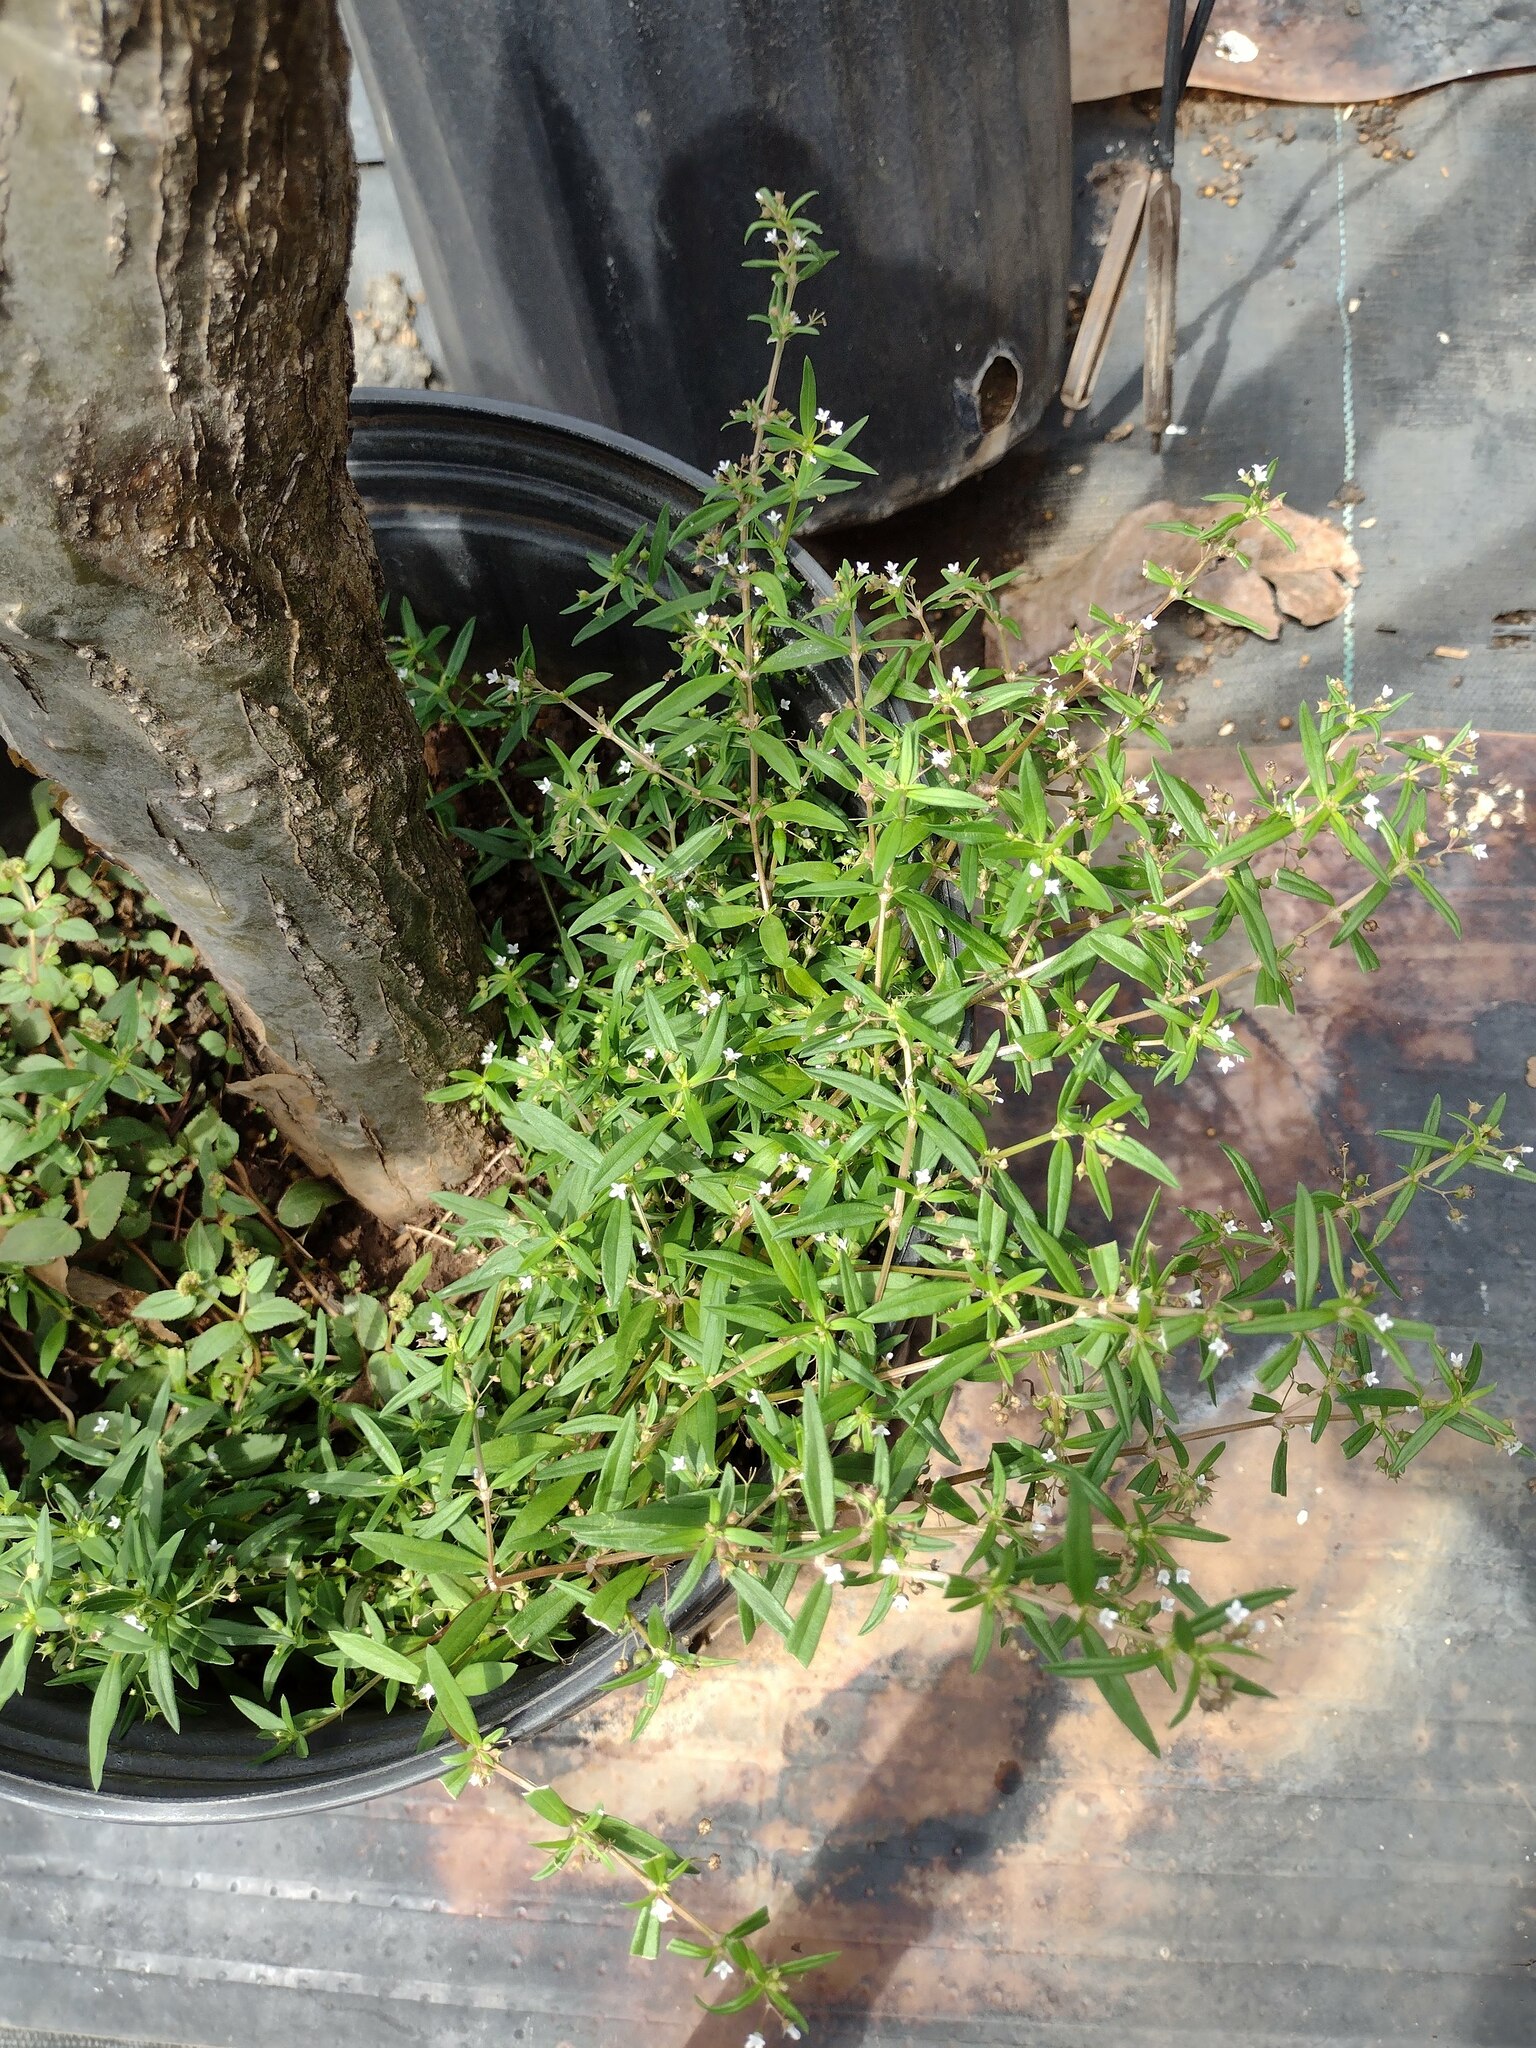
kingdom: Plantae
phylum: Tracheophyta
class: Magnoliopsida
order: Gentianales
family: Rubiaceae
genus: Oldenlandia
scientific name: Oldenlandia corymbosa
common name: Flat-top mille graines
